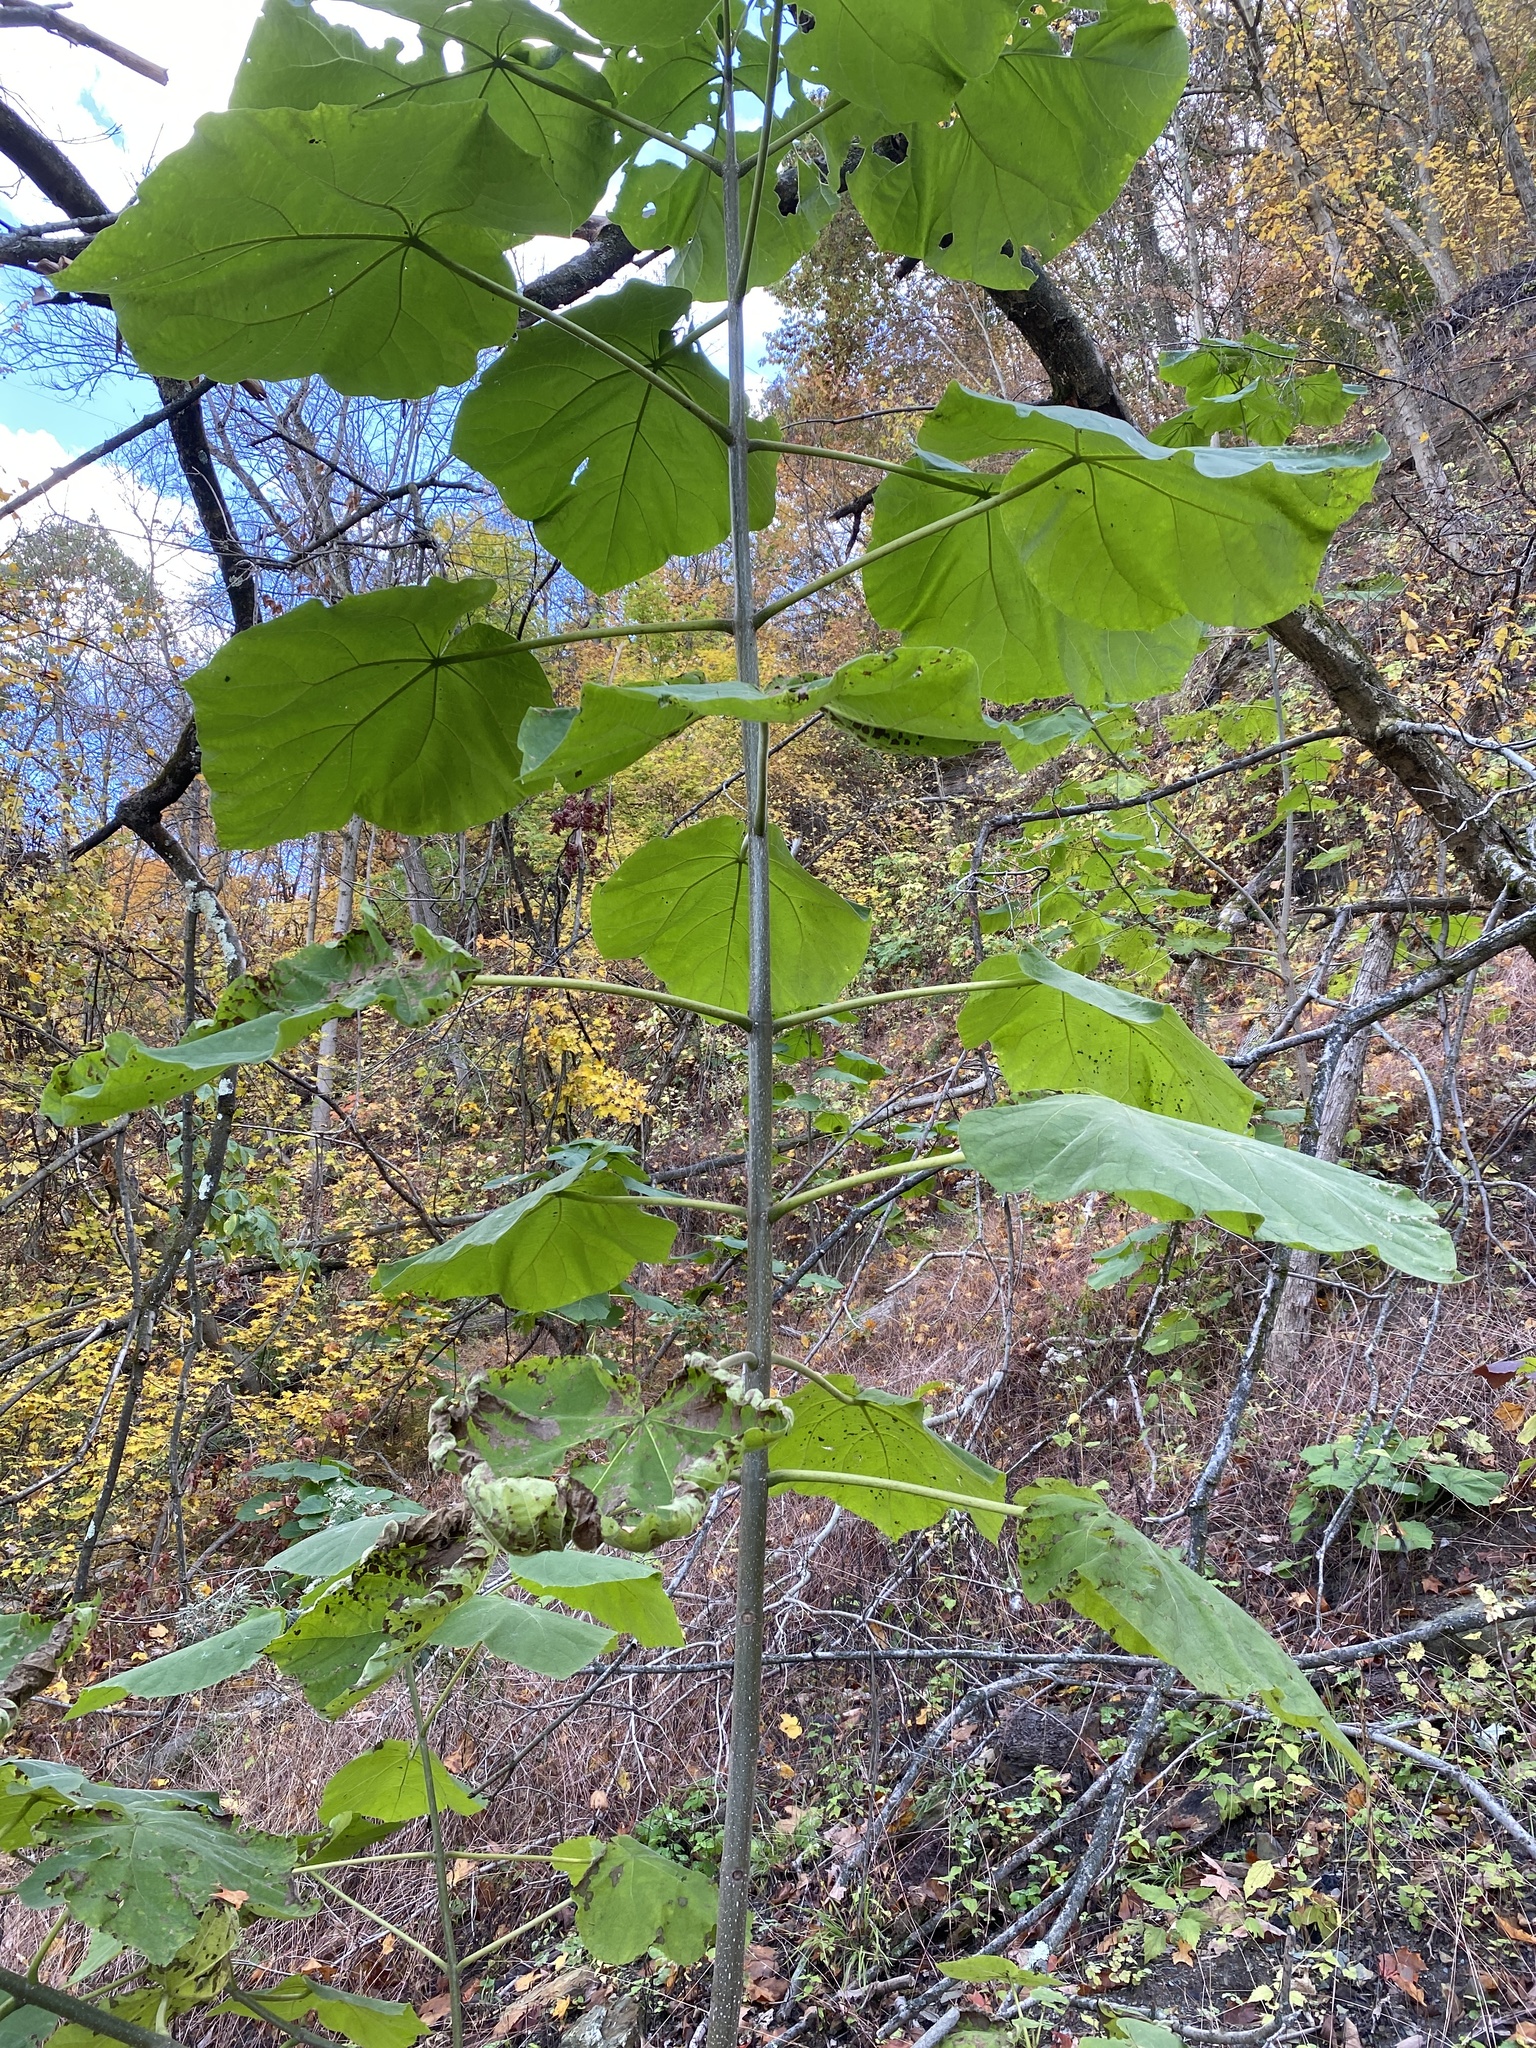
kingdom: Plantae
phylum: Tracheophyta
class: Magnoliopsida
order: Lamiales
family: Paulowniaceae
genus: Paulownia
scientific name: Paulownia tomentosa
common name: Foxglove-tree
